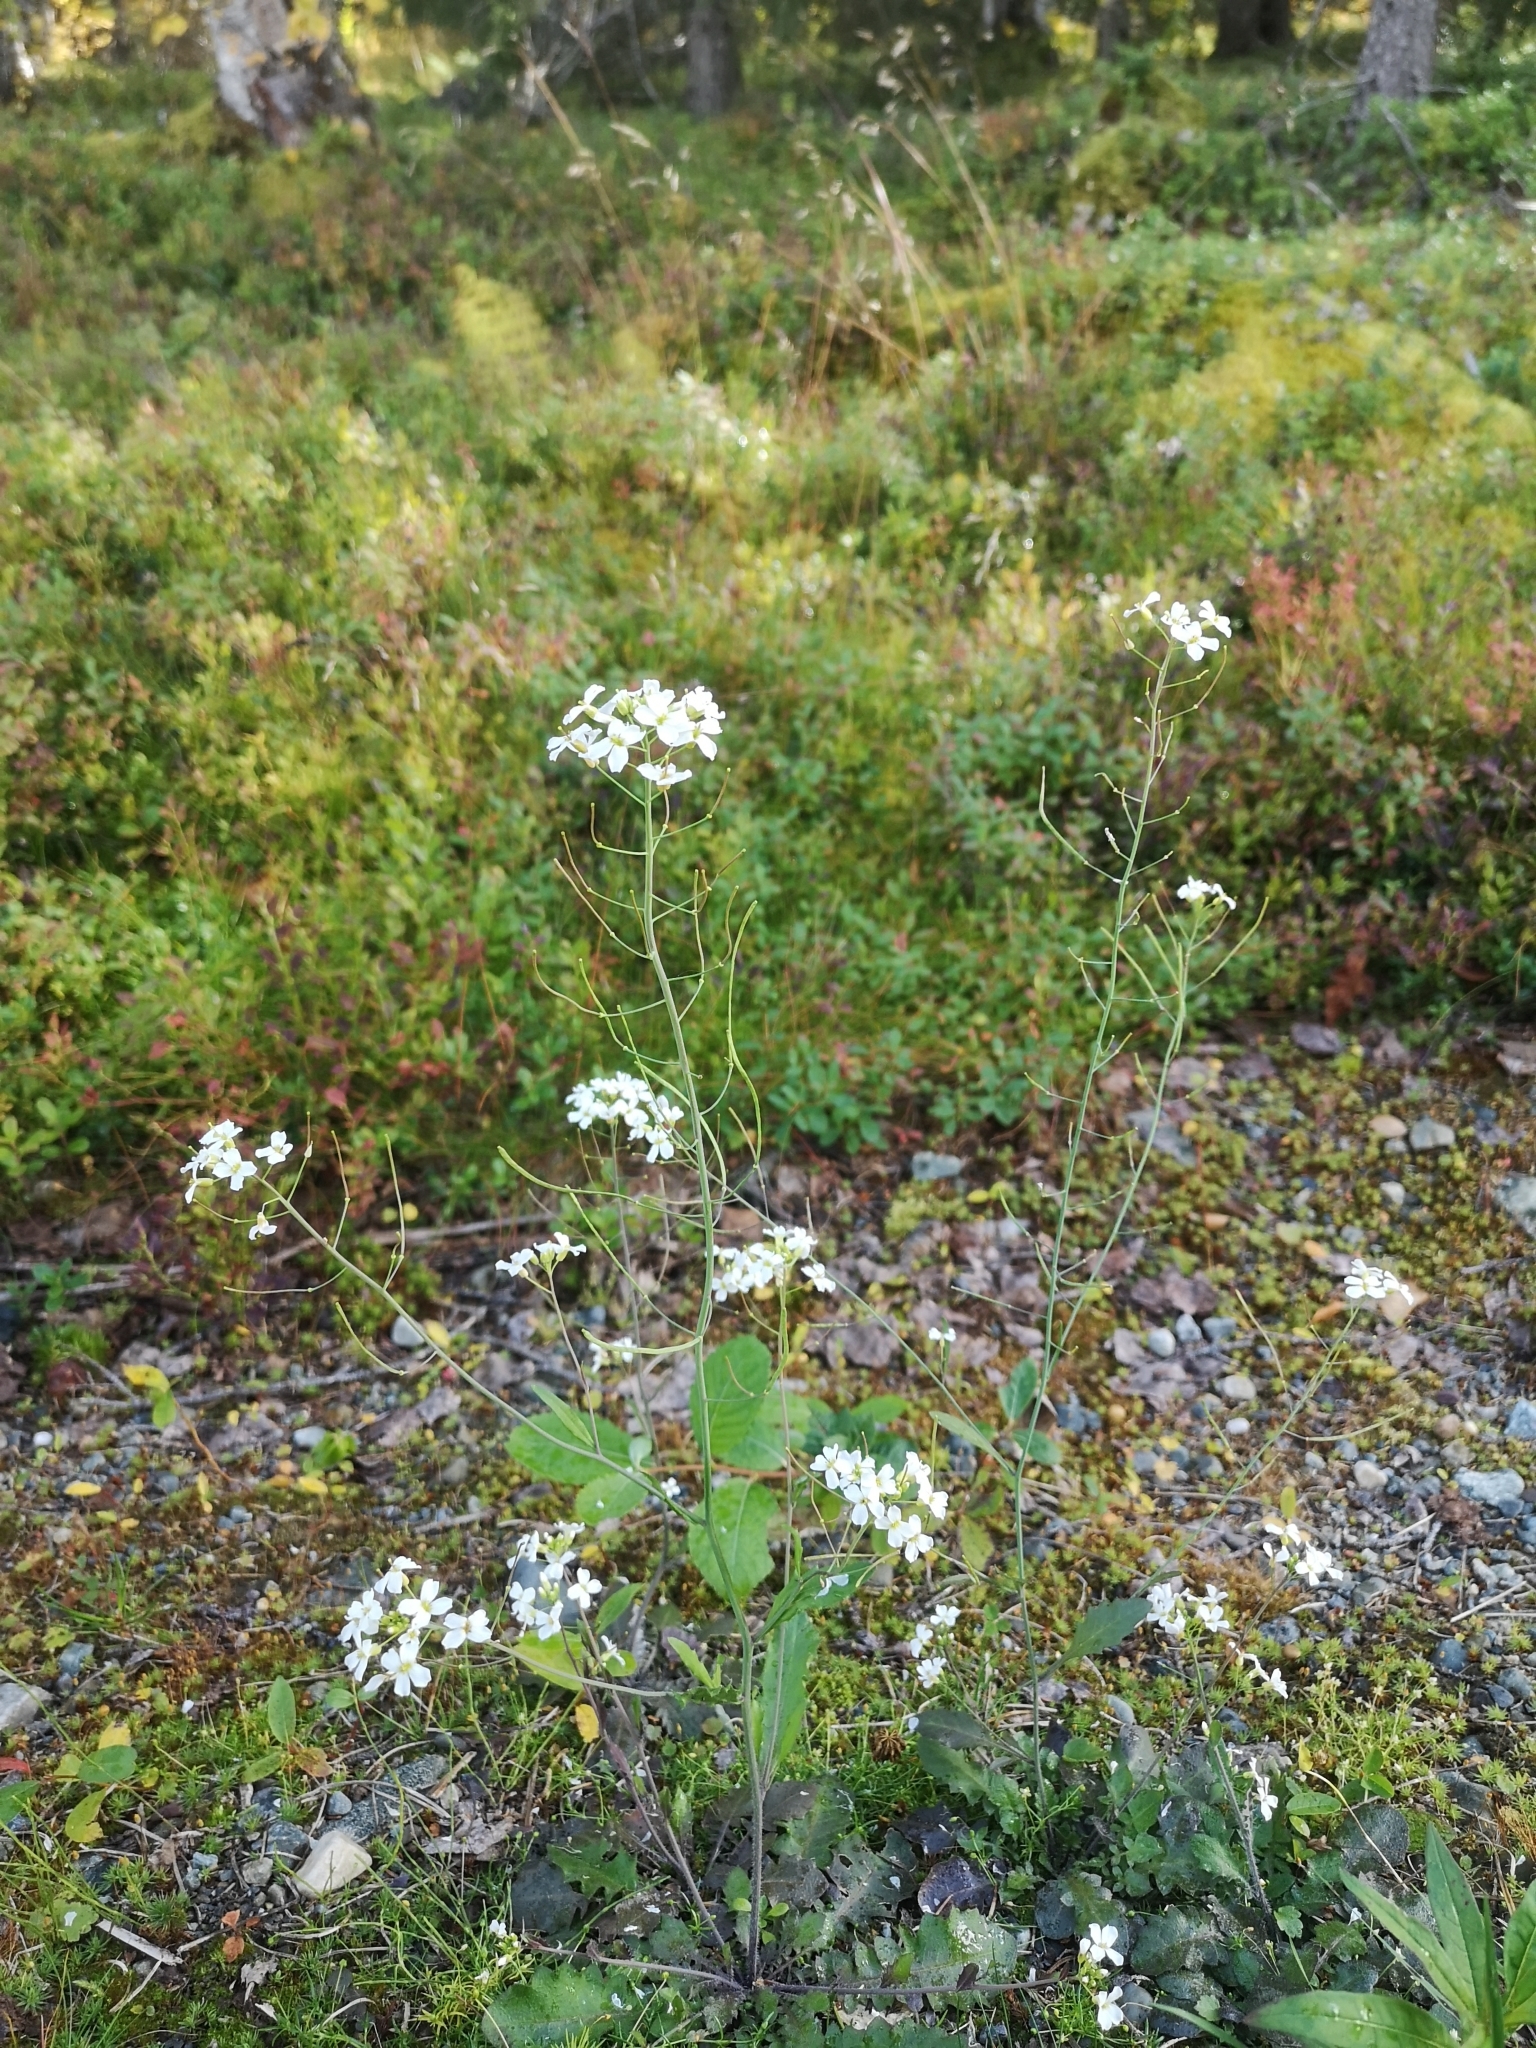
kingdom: Plantae
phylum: Tracheophyta
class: Magnoliopsida
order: Brassicales
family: Brassicaceae
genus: Arabidopsis
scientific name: Arabidopsis arenosa
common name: Sand rock-cress
